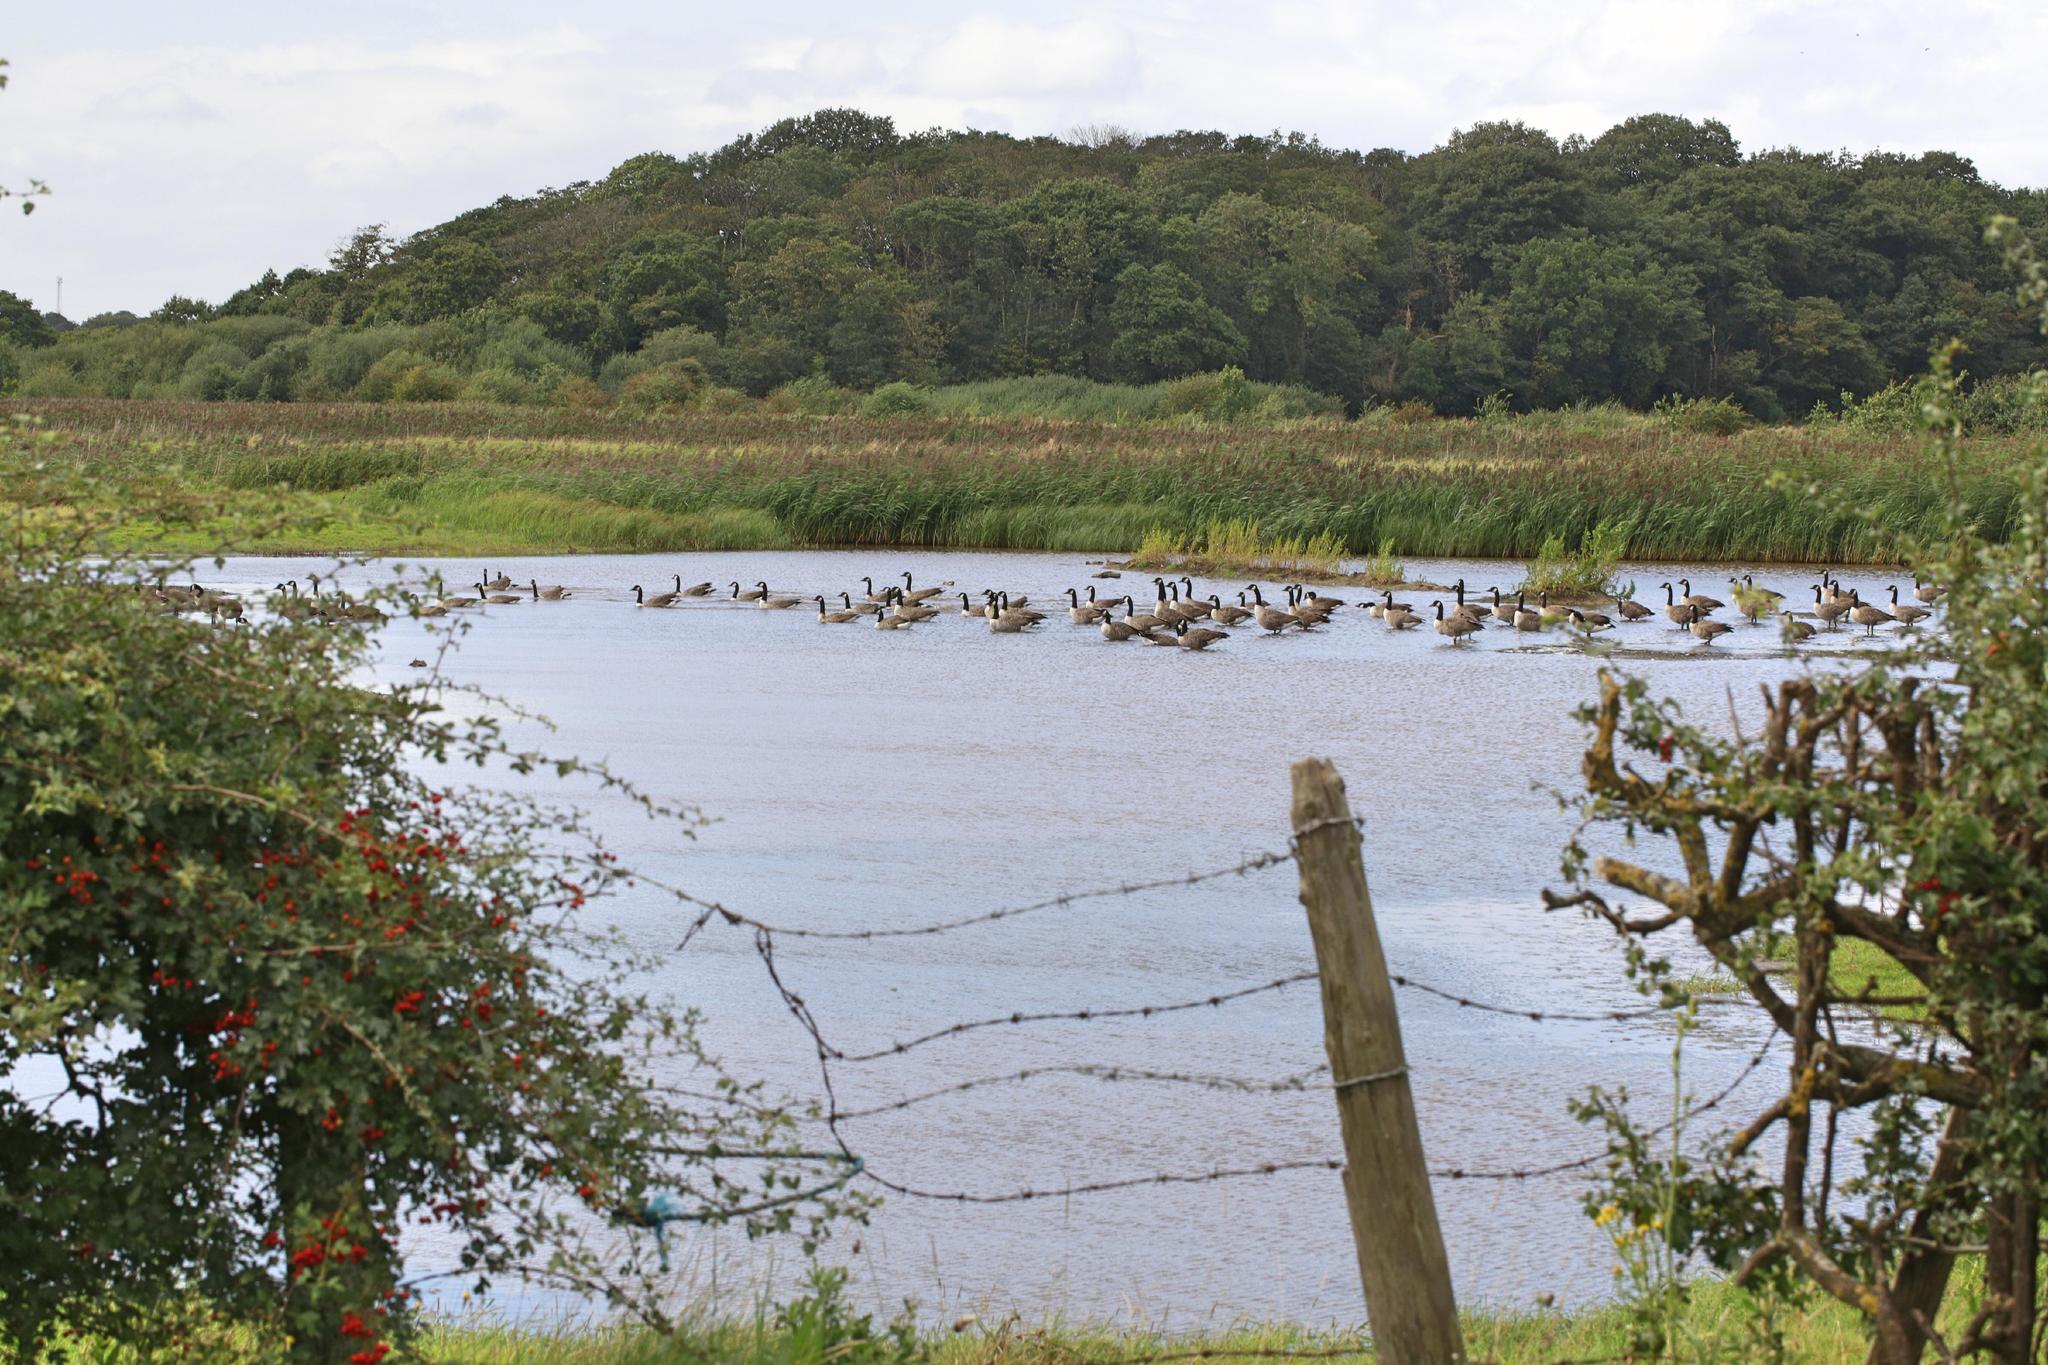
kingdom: Animalia
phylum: Chordata
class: Aves
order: Anseriformes
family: Anatidae
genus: Branta
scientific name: Branta canadensis
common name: Canada goose
